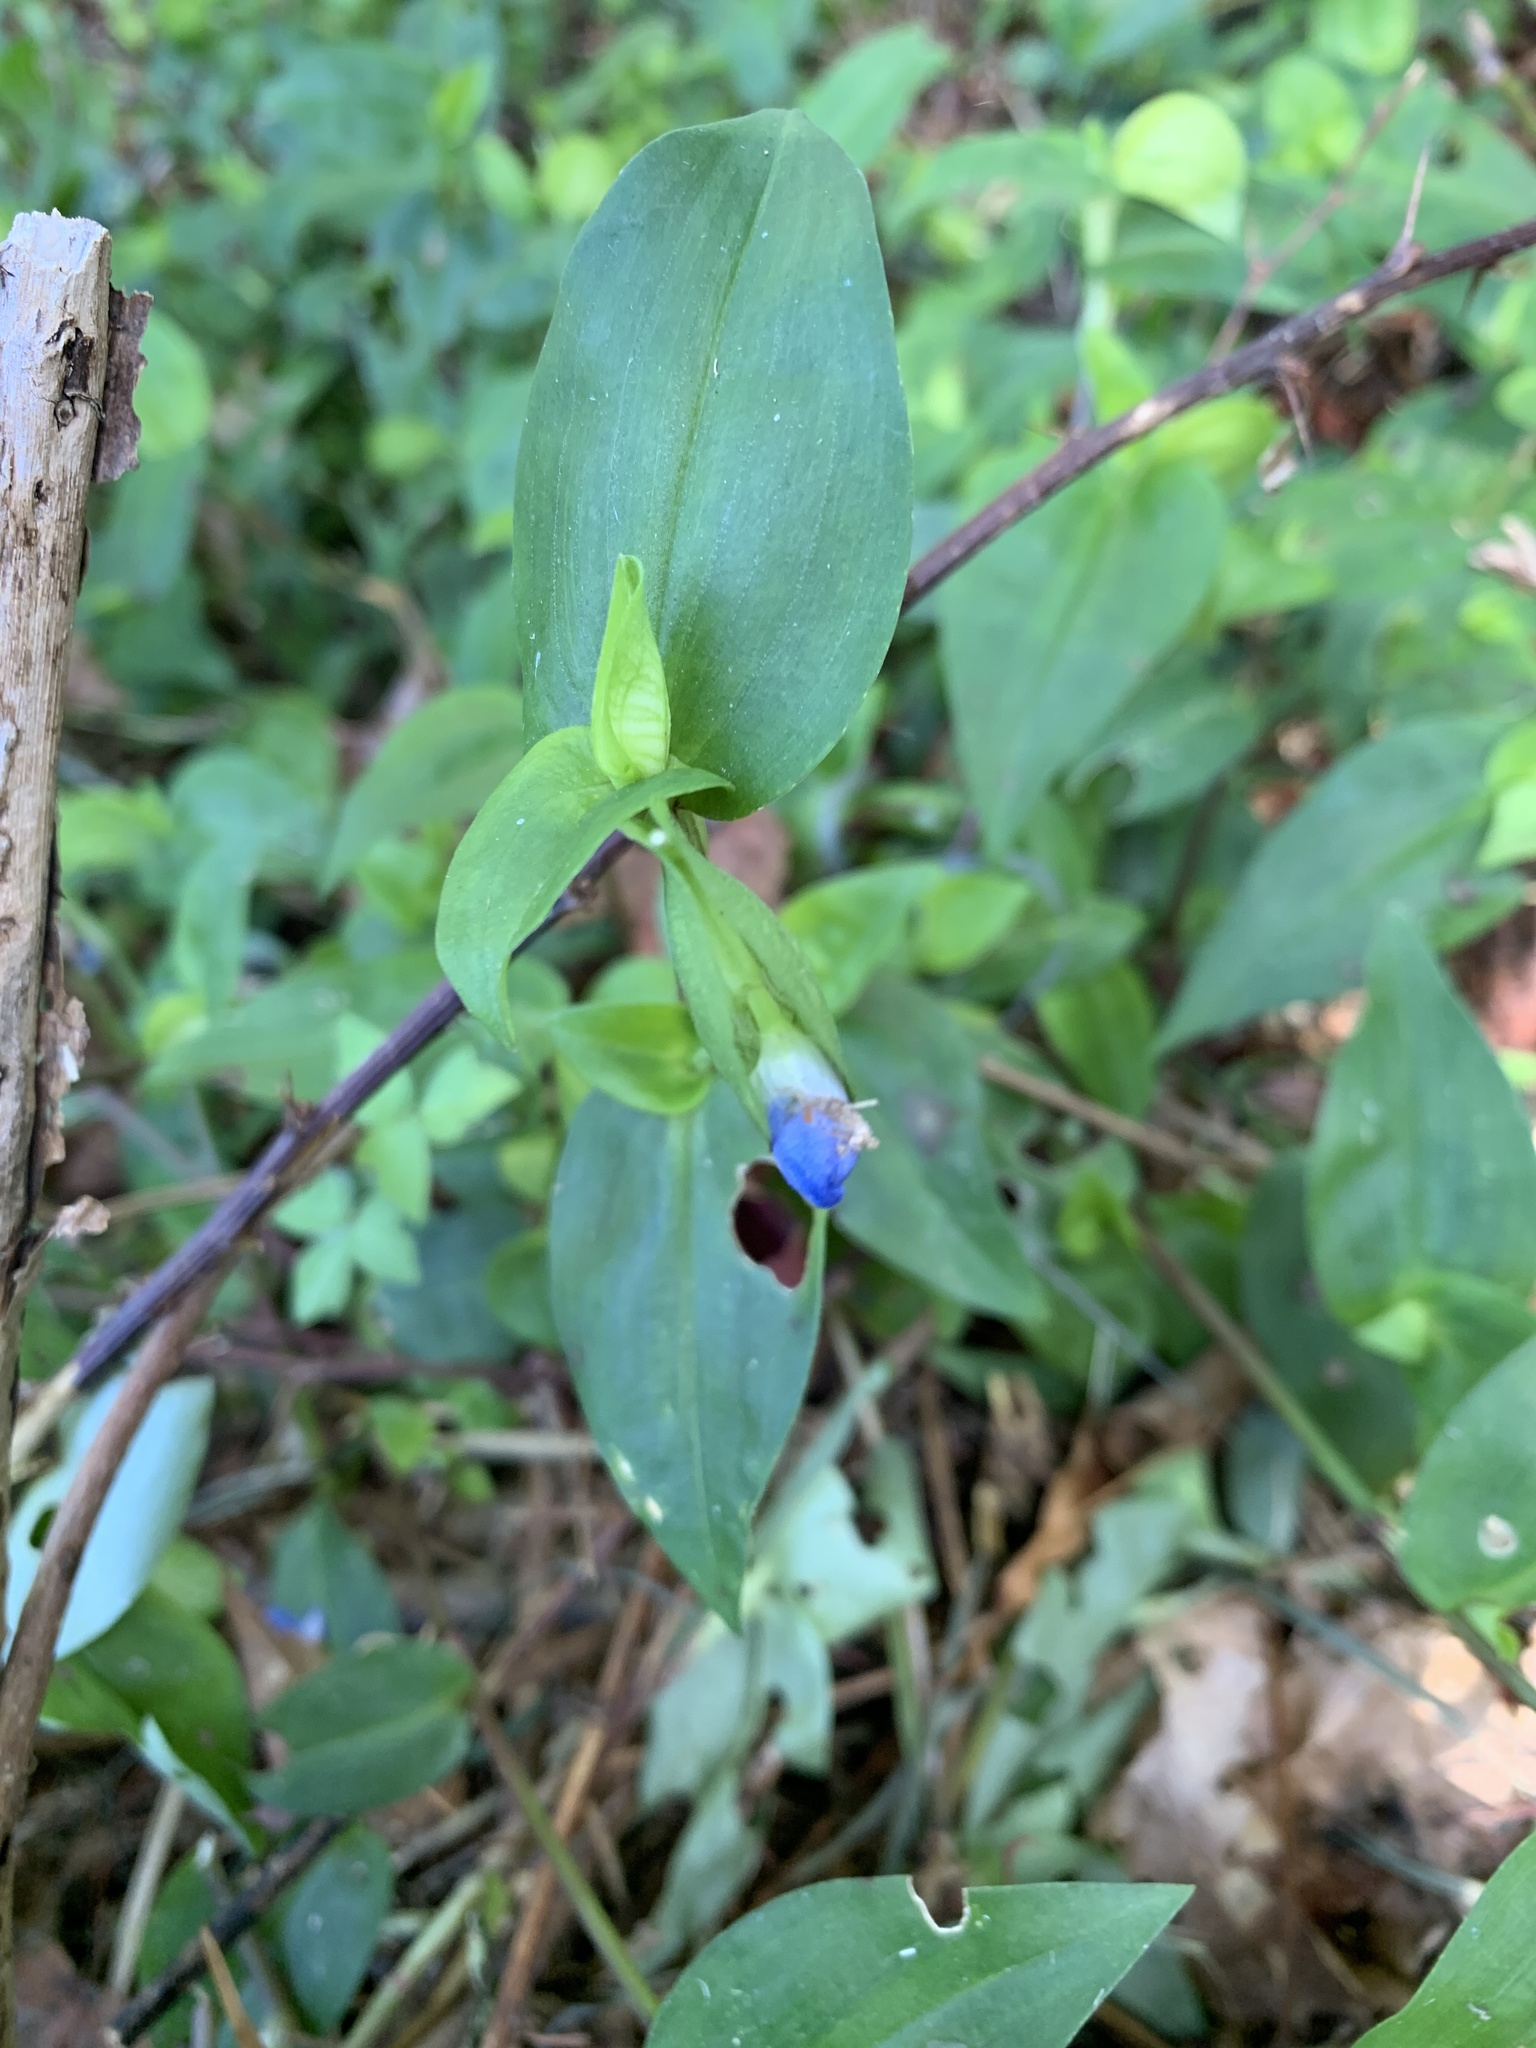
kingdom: Plantae
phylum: Tracheophyta
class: Liliopsida
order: Commelinales
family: Commelinaceae
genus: Commelina
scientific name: Commelina communis
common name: Asiatic dayflower
